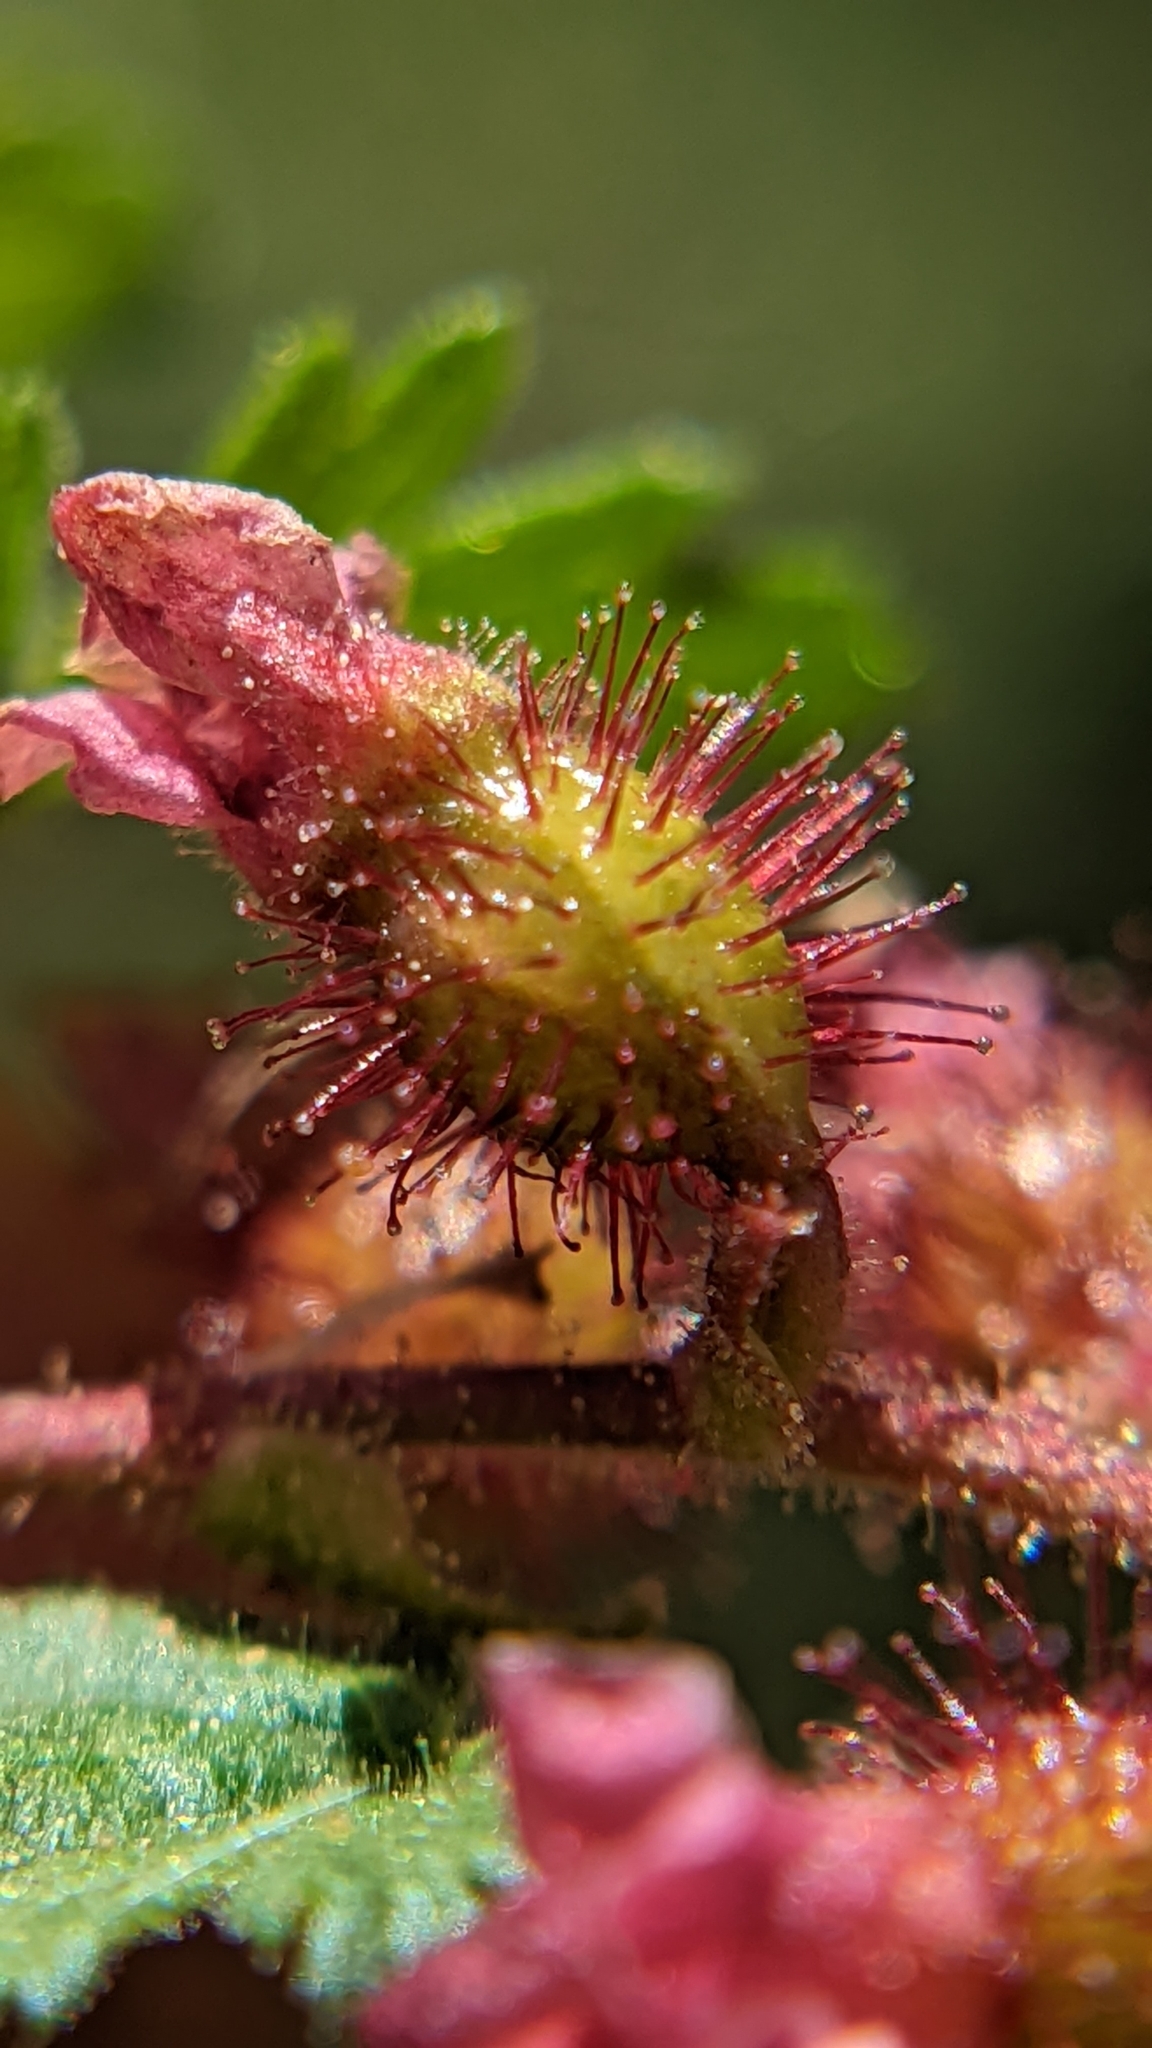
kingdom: Plantae
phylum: Tracheophyta
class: Magnoliopsida
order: Saxifragales
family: Grossulariaceae
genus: Ribes
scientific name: Ribes montigenum
